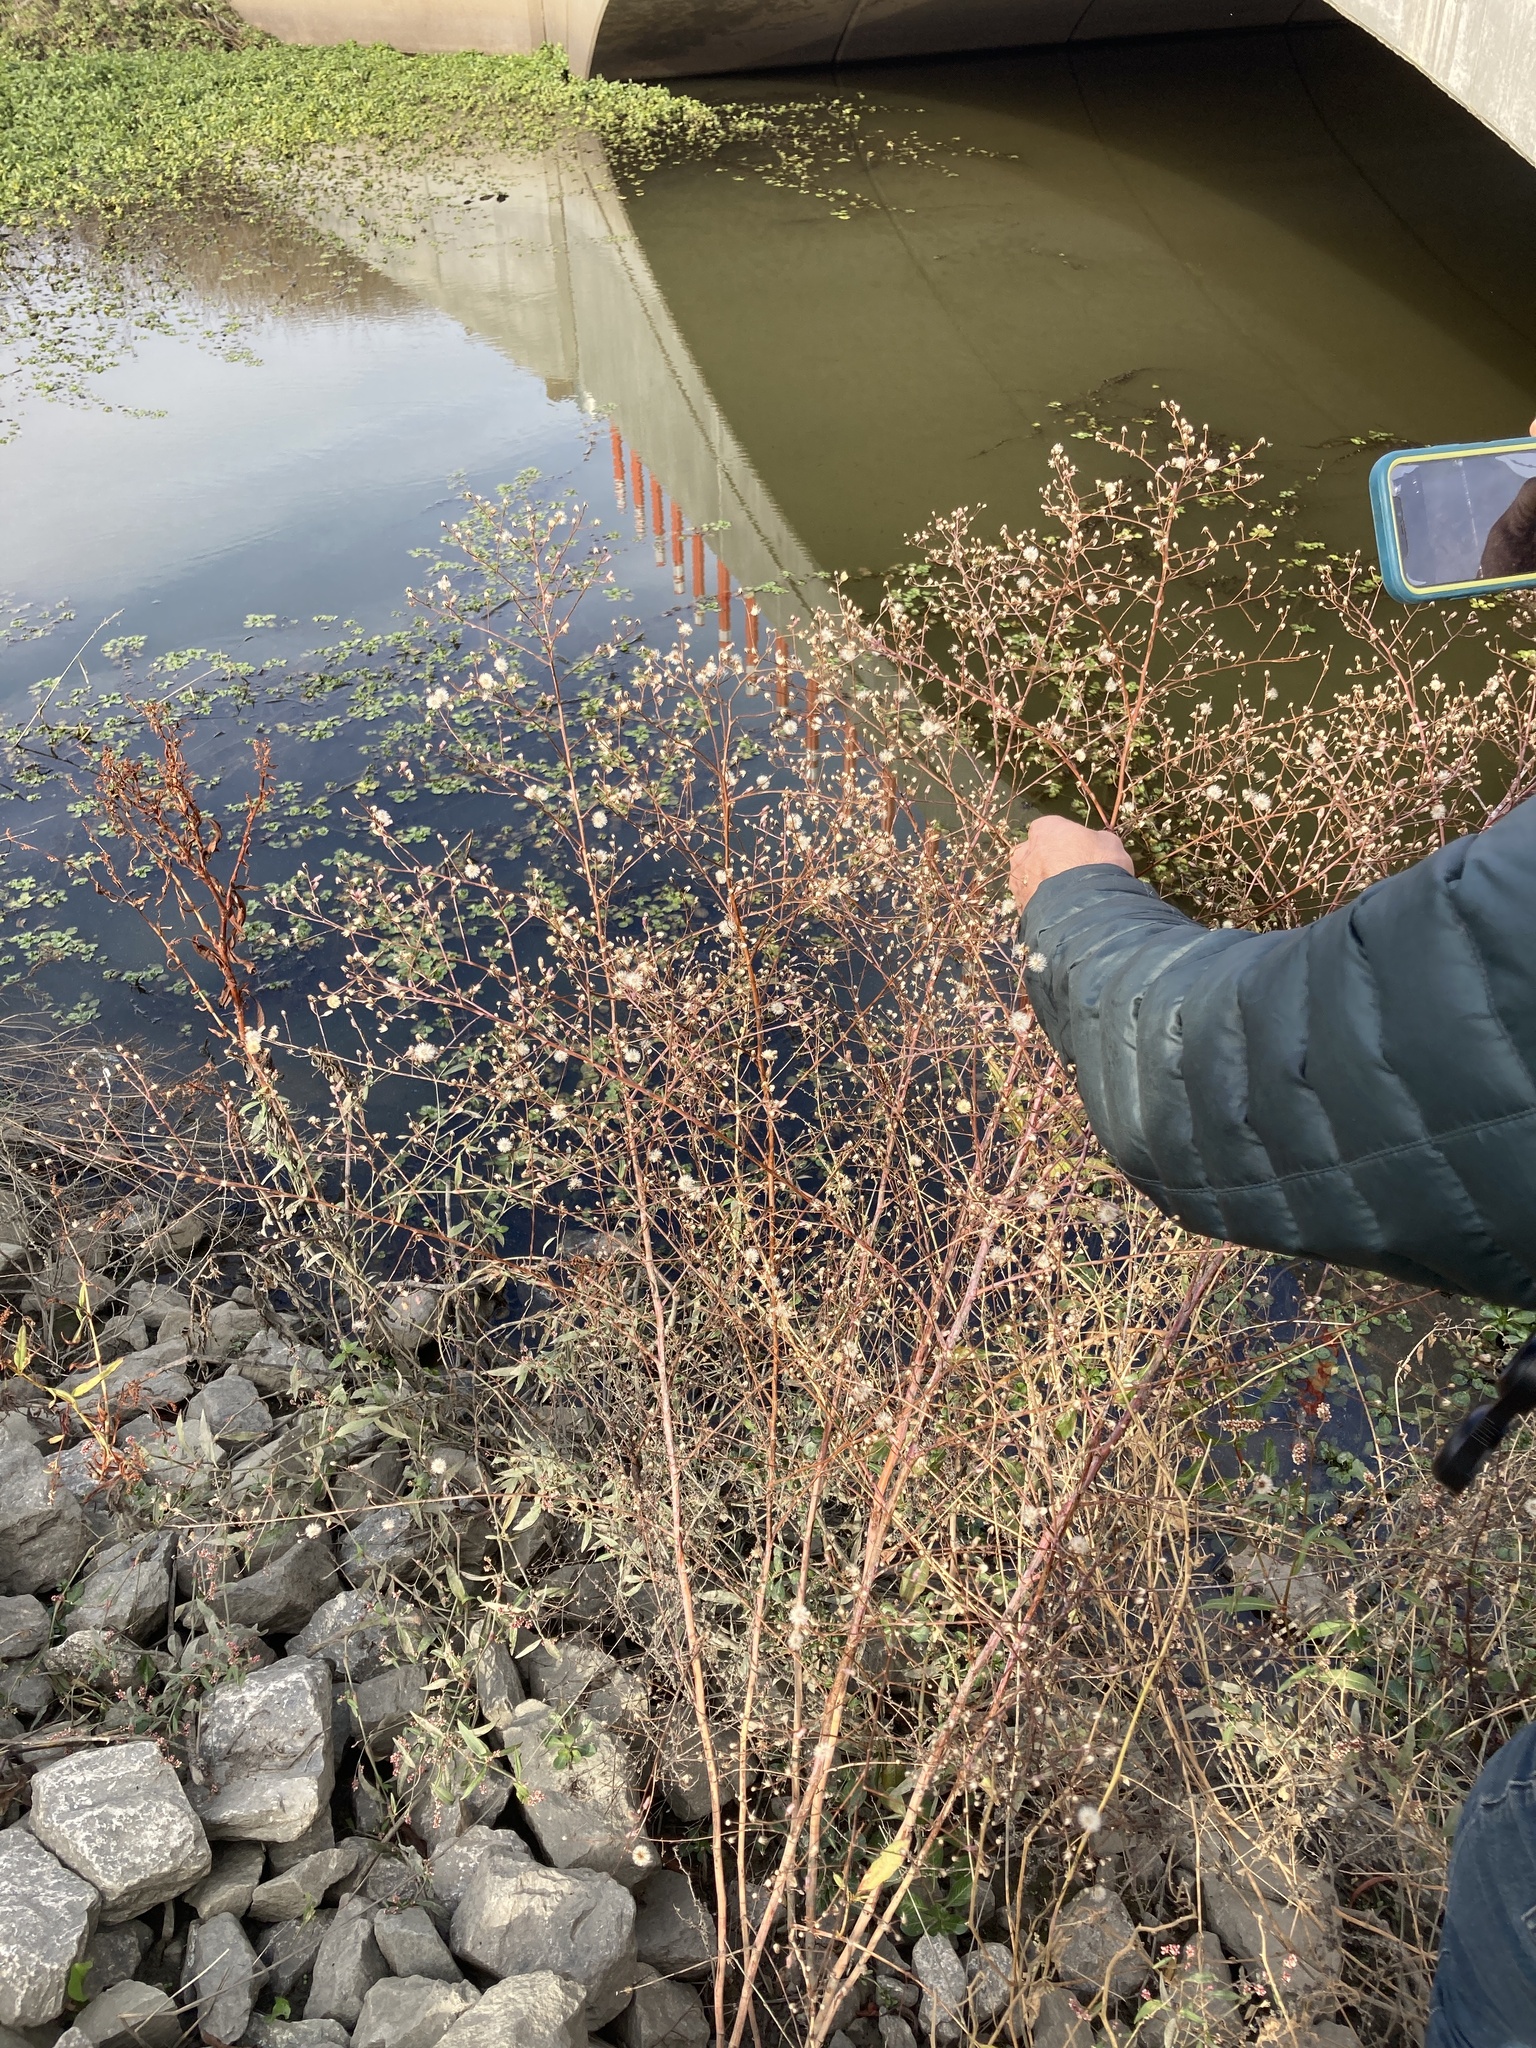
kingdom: Plantae
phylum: Tracheophyta
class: Magnoliopsida
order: Asterales
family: Asteraceae
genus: Symphyotrichum
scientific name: Symphyotrichum subulatum
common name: Annual saltmarsh aster
